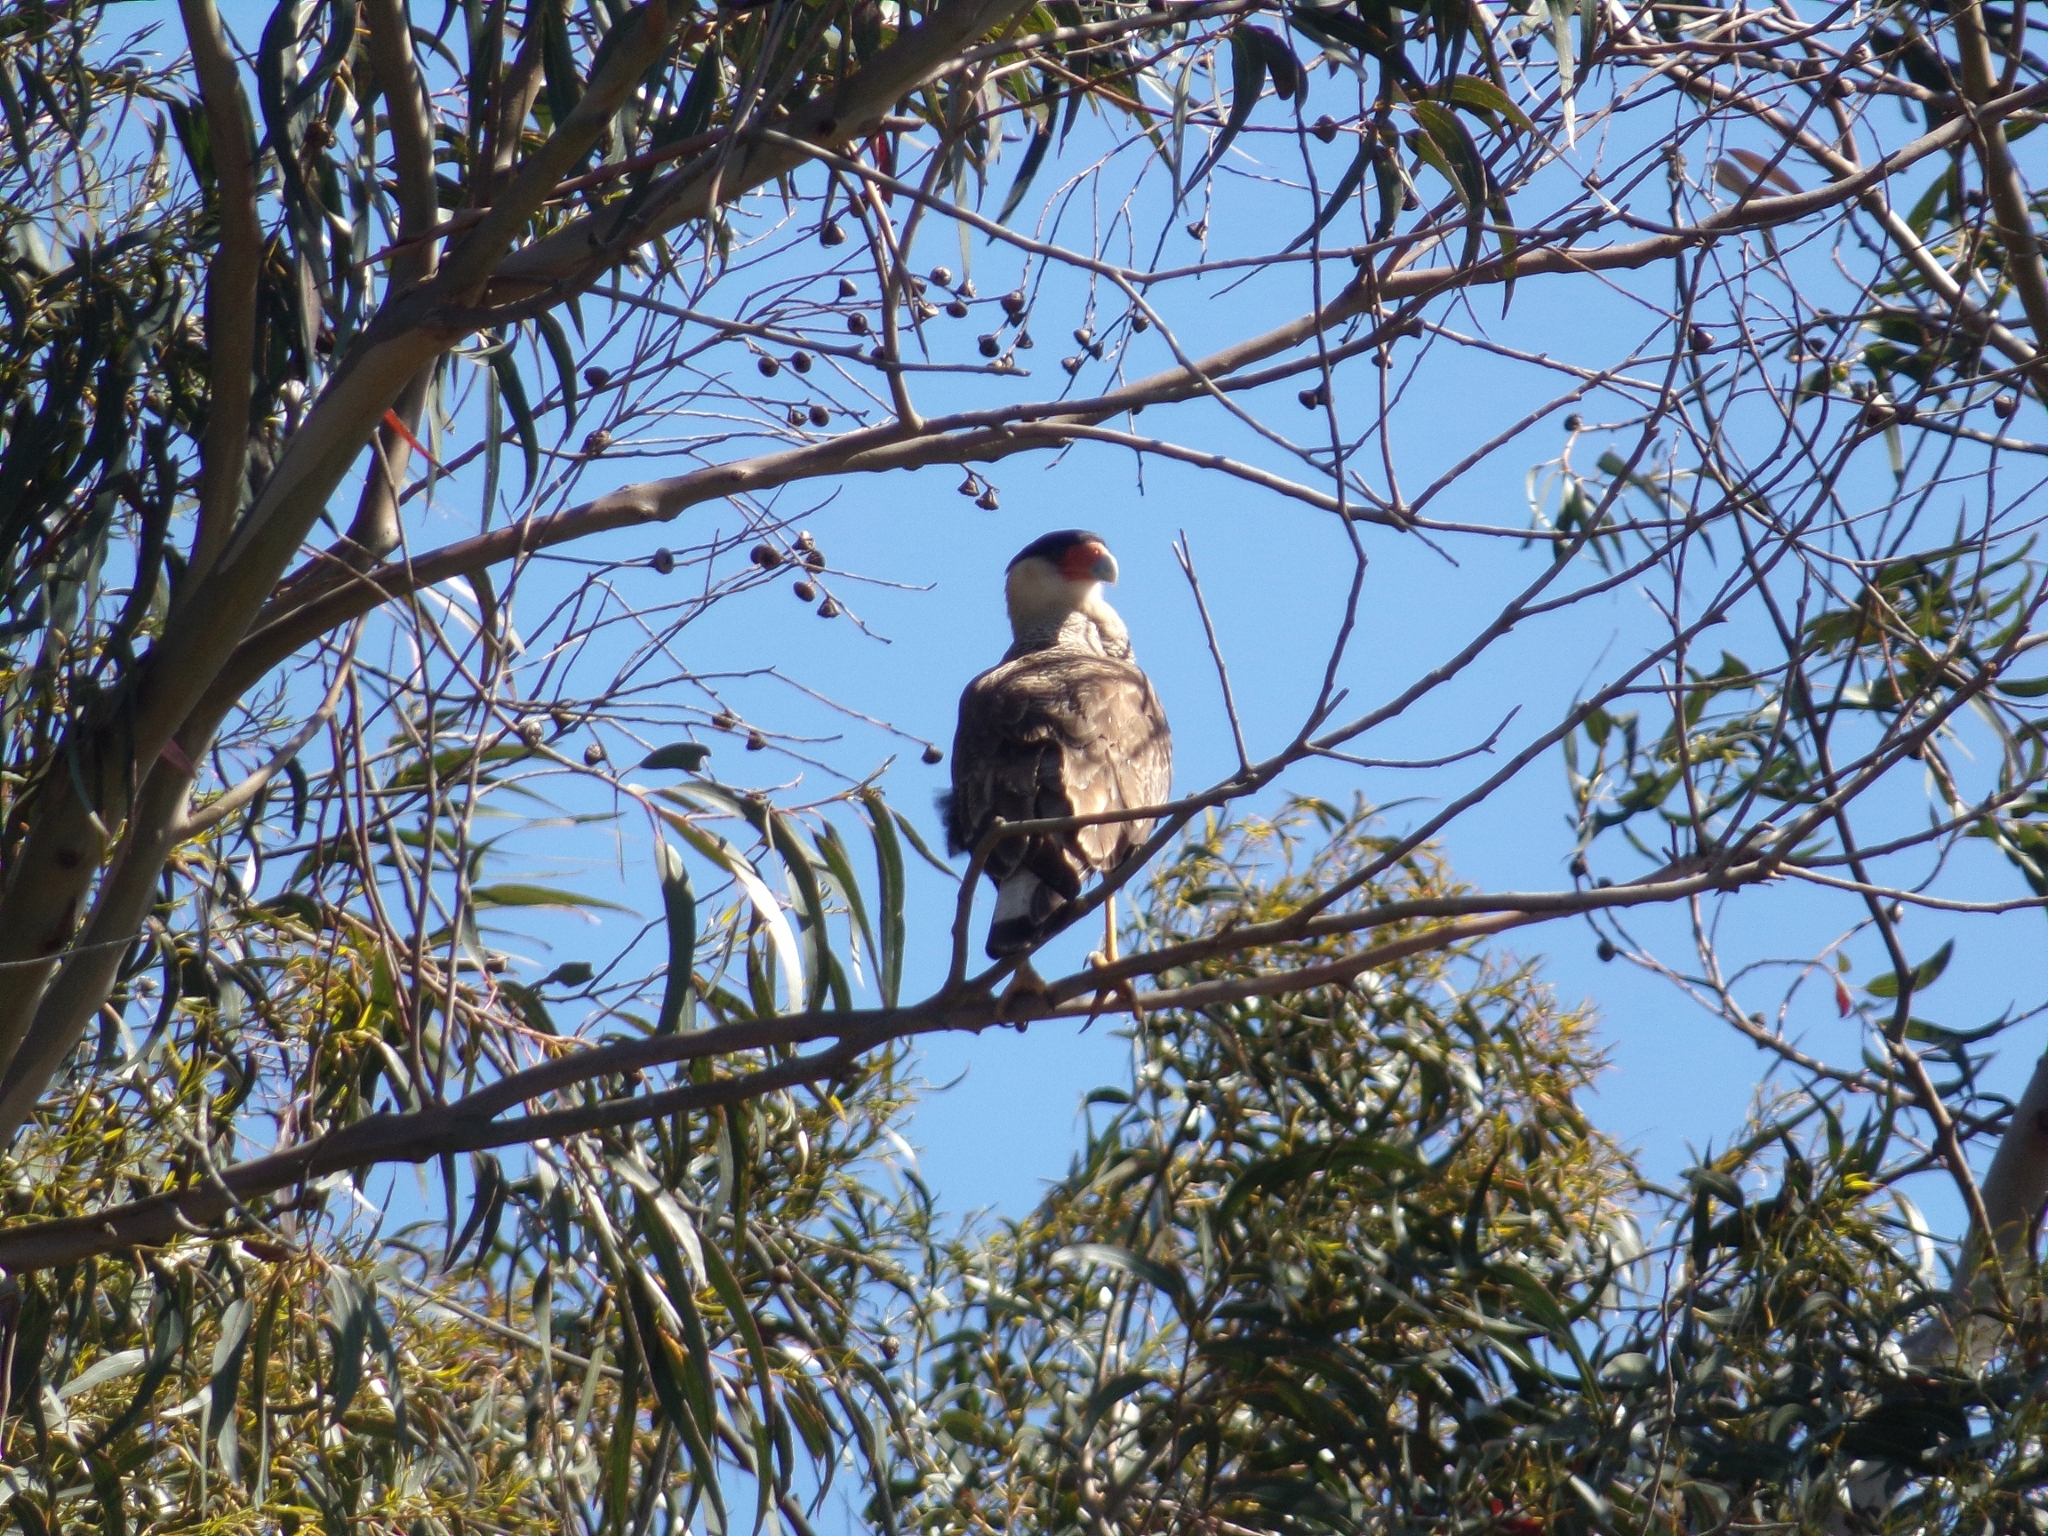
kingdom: Animalia
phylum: Chordata
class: Aves
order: Falconiformes
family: Falconidae
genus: Caracara
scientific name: Caracara plancus
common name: Southern caracara
